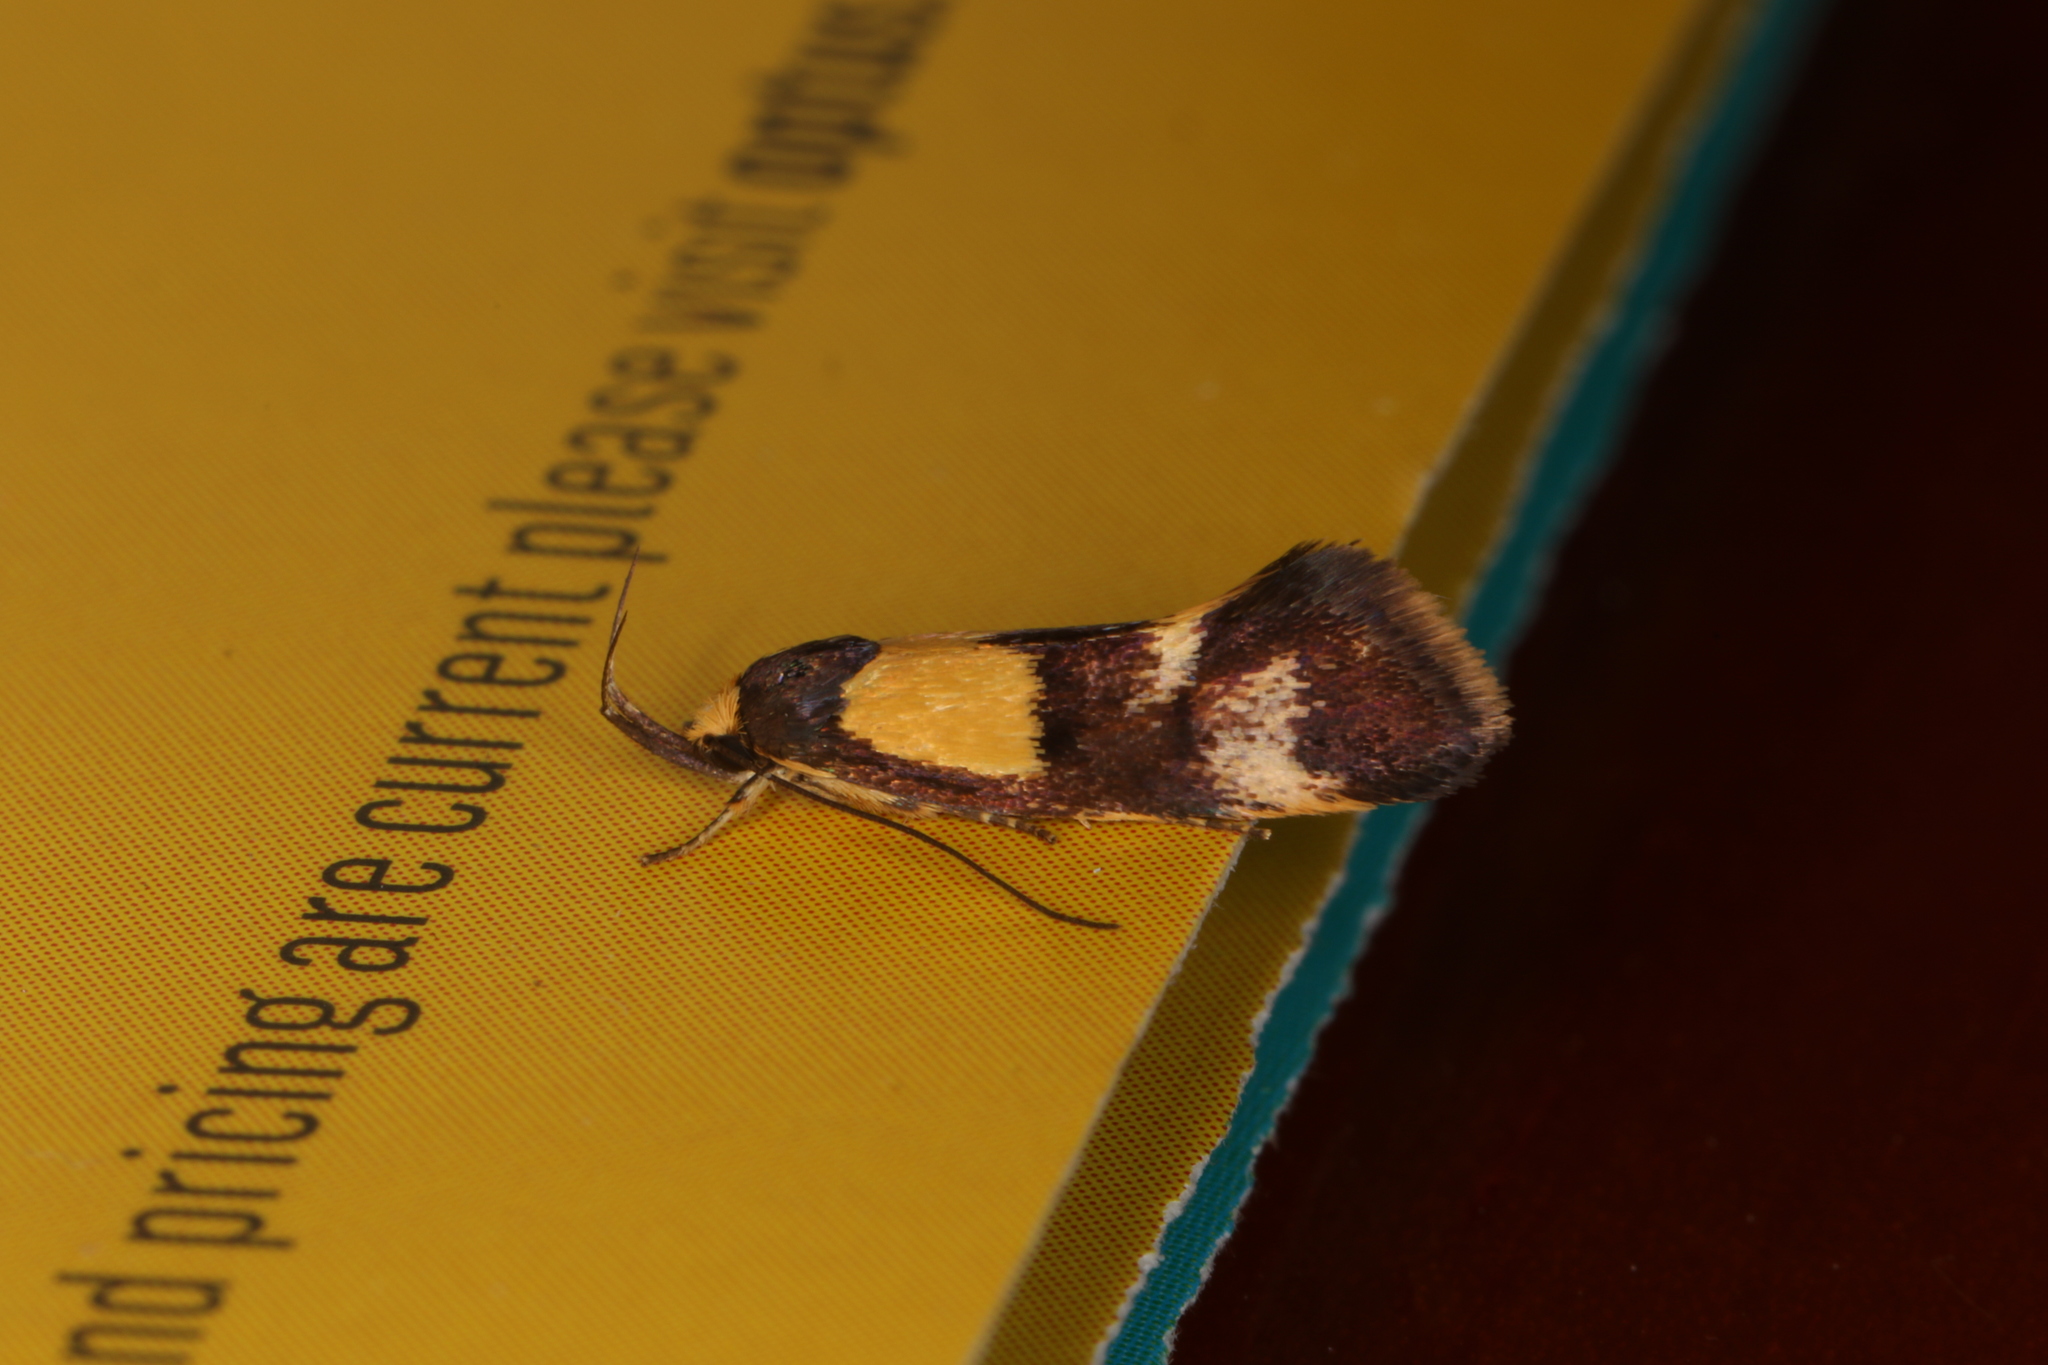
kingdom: Animalia
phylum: Arthropoda
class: Insecta
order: Lepidoptera
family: Oecophoridae
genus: Enchronista
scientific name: Enchronista proximella
